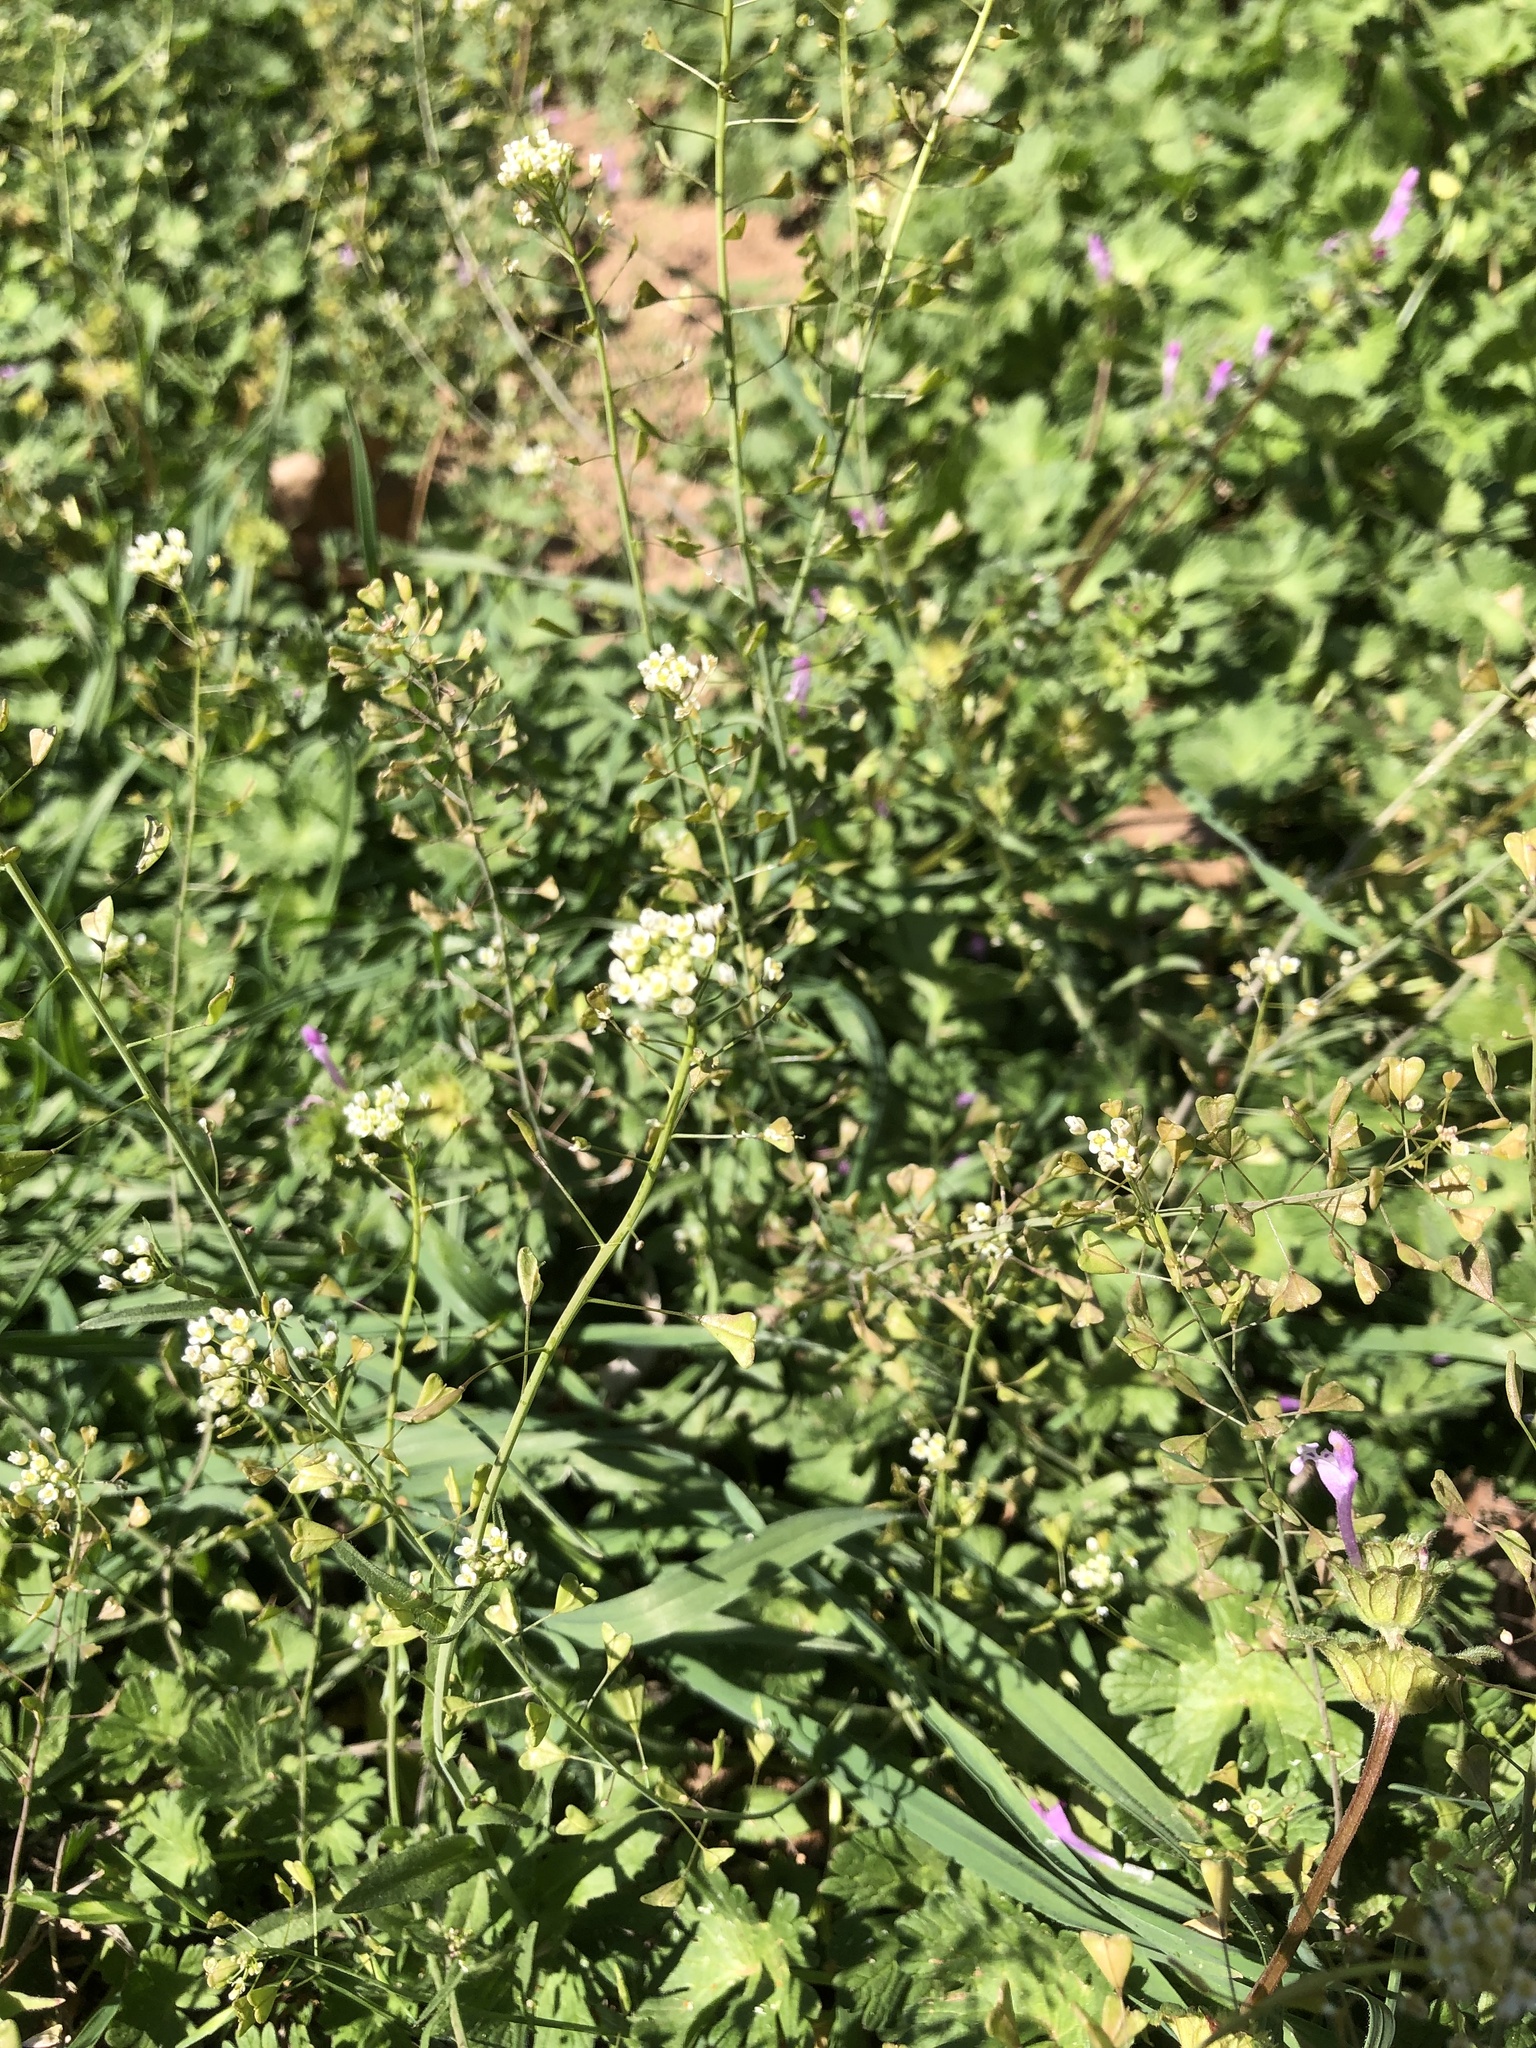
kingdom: Plantae
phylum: Tracheophyta
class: Magnoliopsida
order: Brassicales
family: Brassicaceae
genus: Capsella
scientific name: Capsella bursa-pastoris
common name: Shepherd's purse
